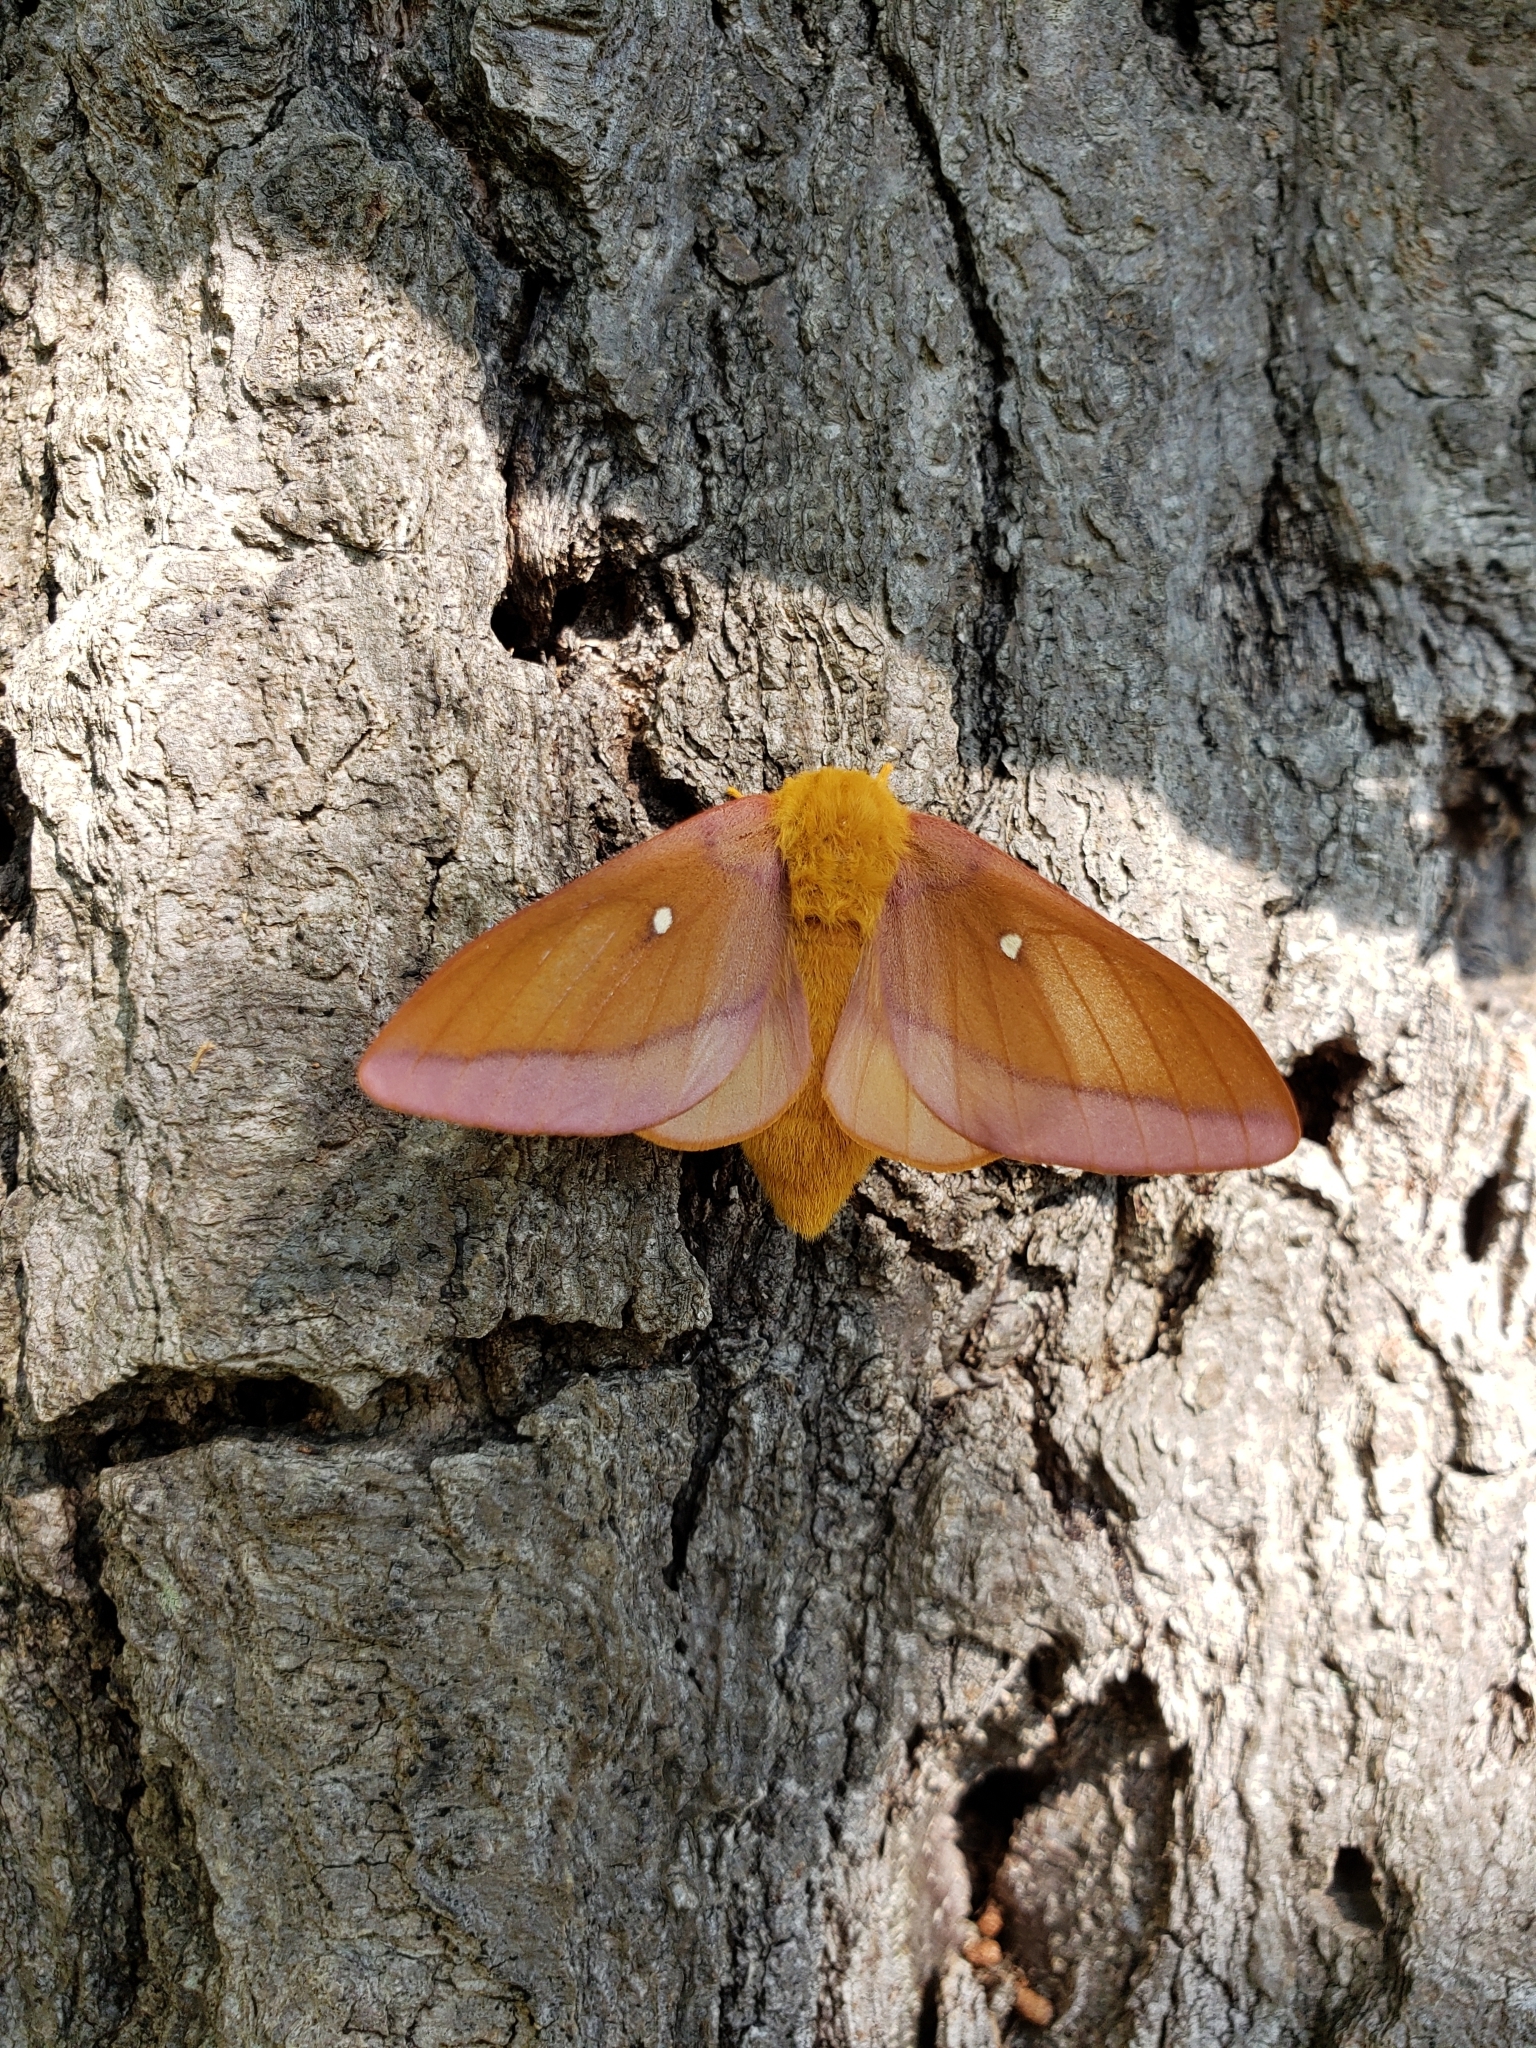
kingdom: Animalia
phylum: Arthropoda
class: Insecta
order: Lepidoptera
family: Saturniidae
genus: Anisota
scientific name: Anisota virginiensis
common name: Pink striped oakworm moth
